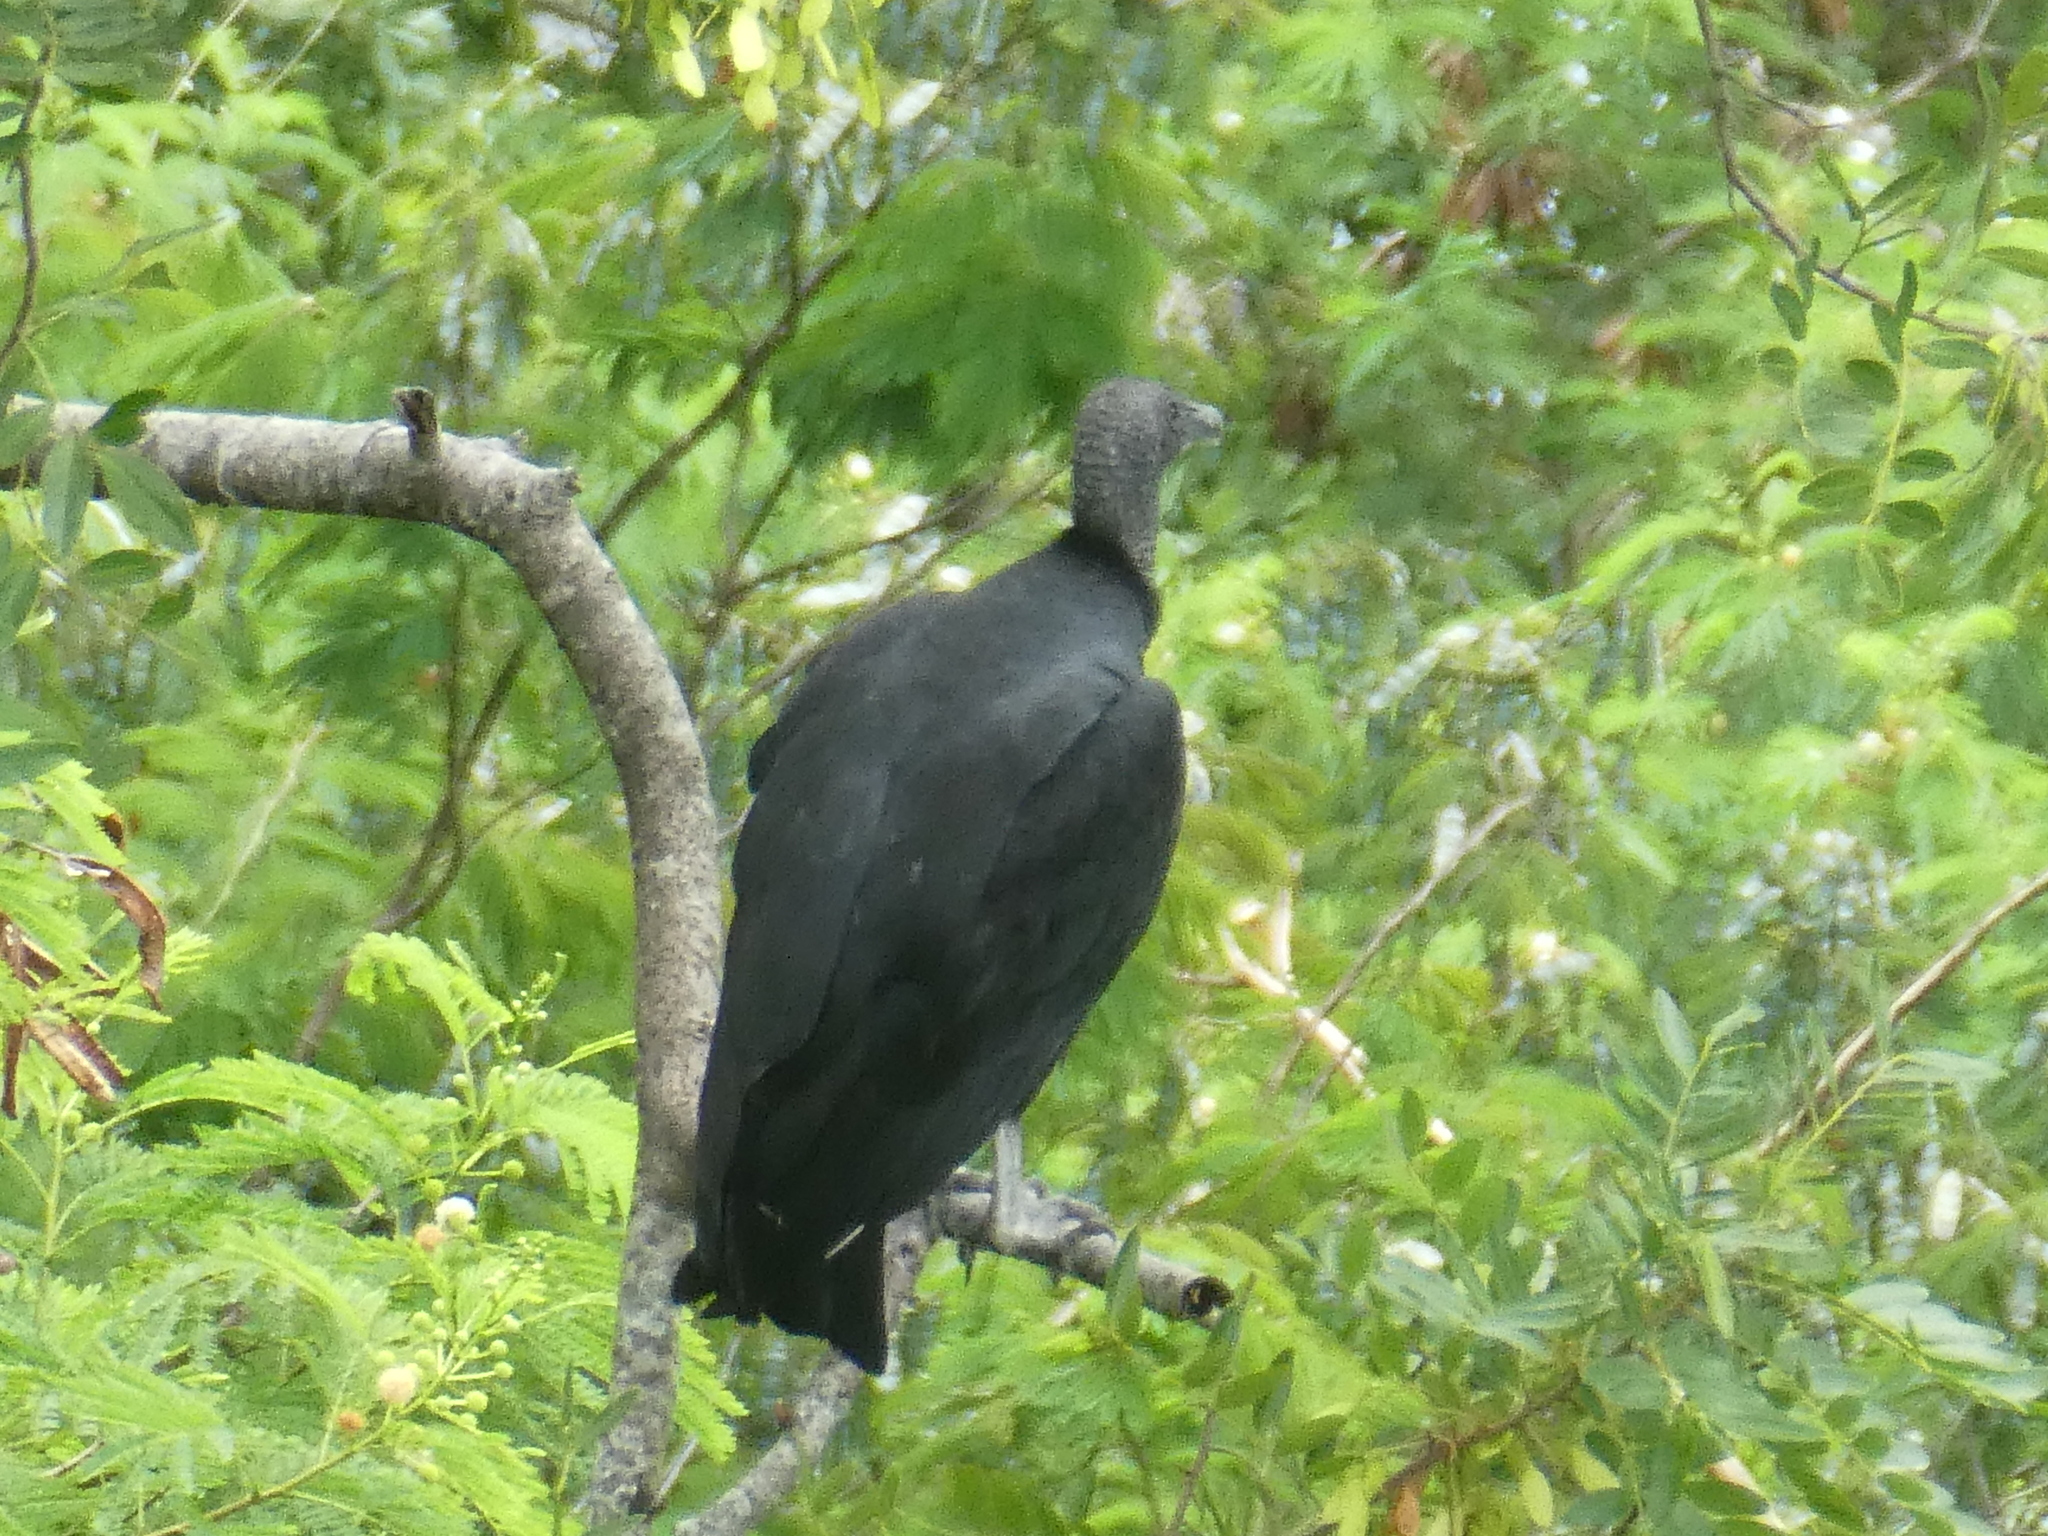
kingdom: Animalia
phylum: Chordata
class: Aves
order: Accipitriformes
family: Cathartidae
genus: Coragyps
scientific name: Coragyps atratus
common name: Black vulture
